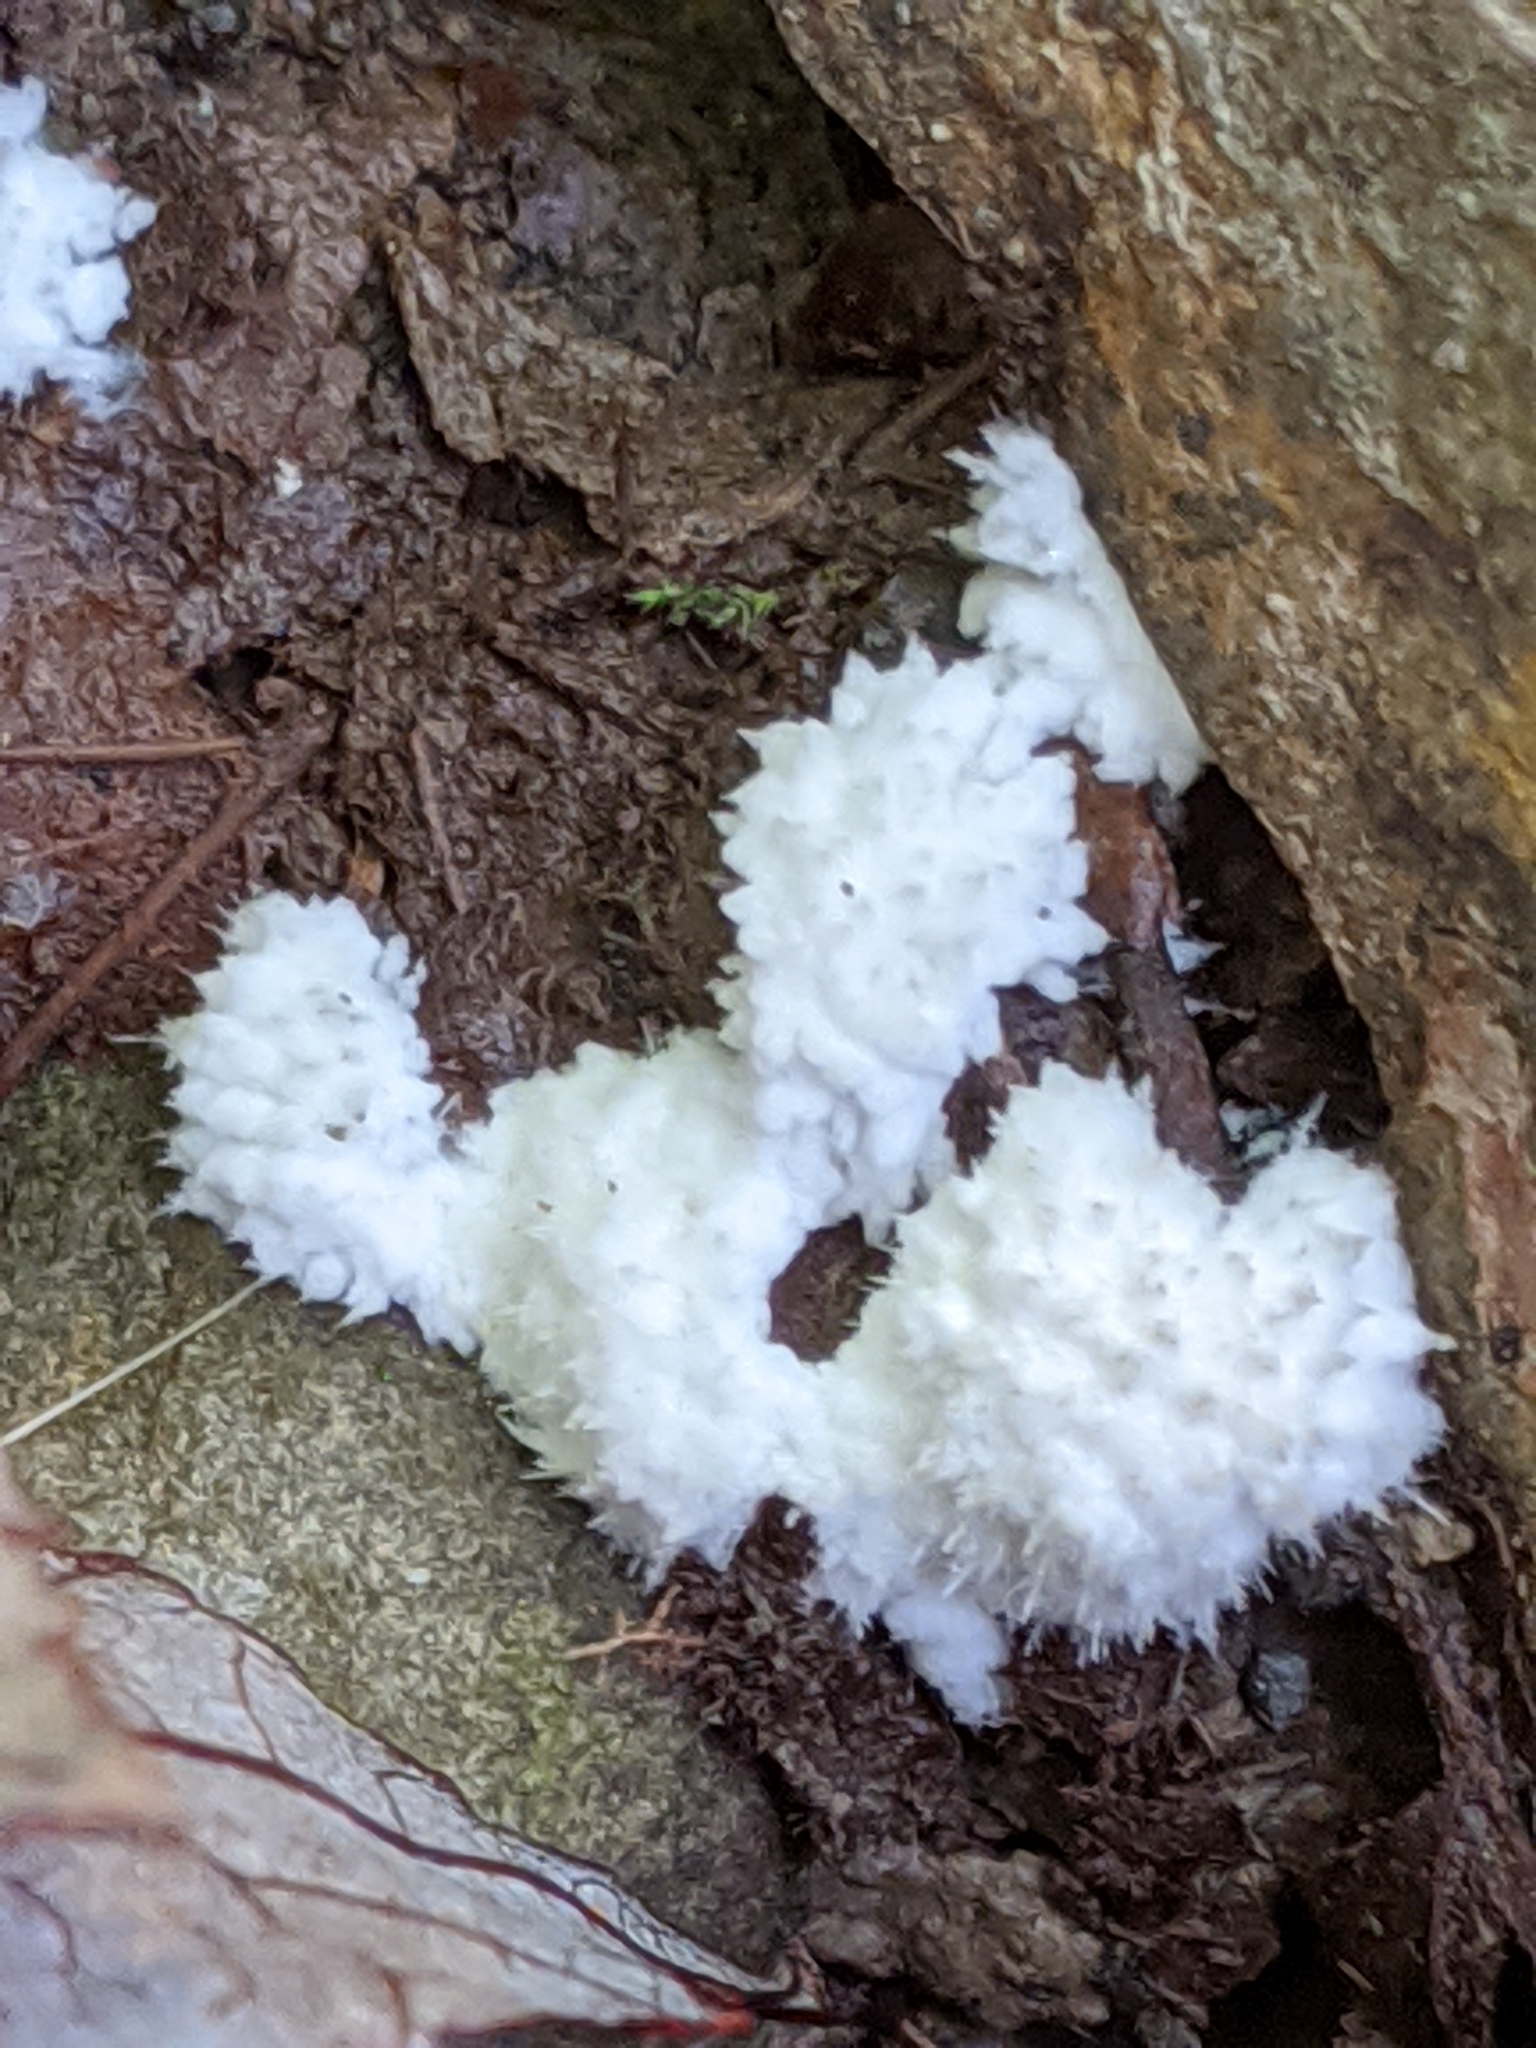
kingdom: Fungi
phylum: Ascomycota
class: Pezizomycetes
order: Pezizales
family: Pezizaceae
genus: Chromelosporiopsis
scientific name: Chromelosporiopsis coerulescens
